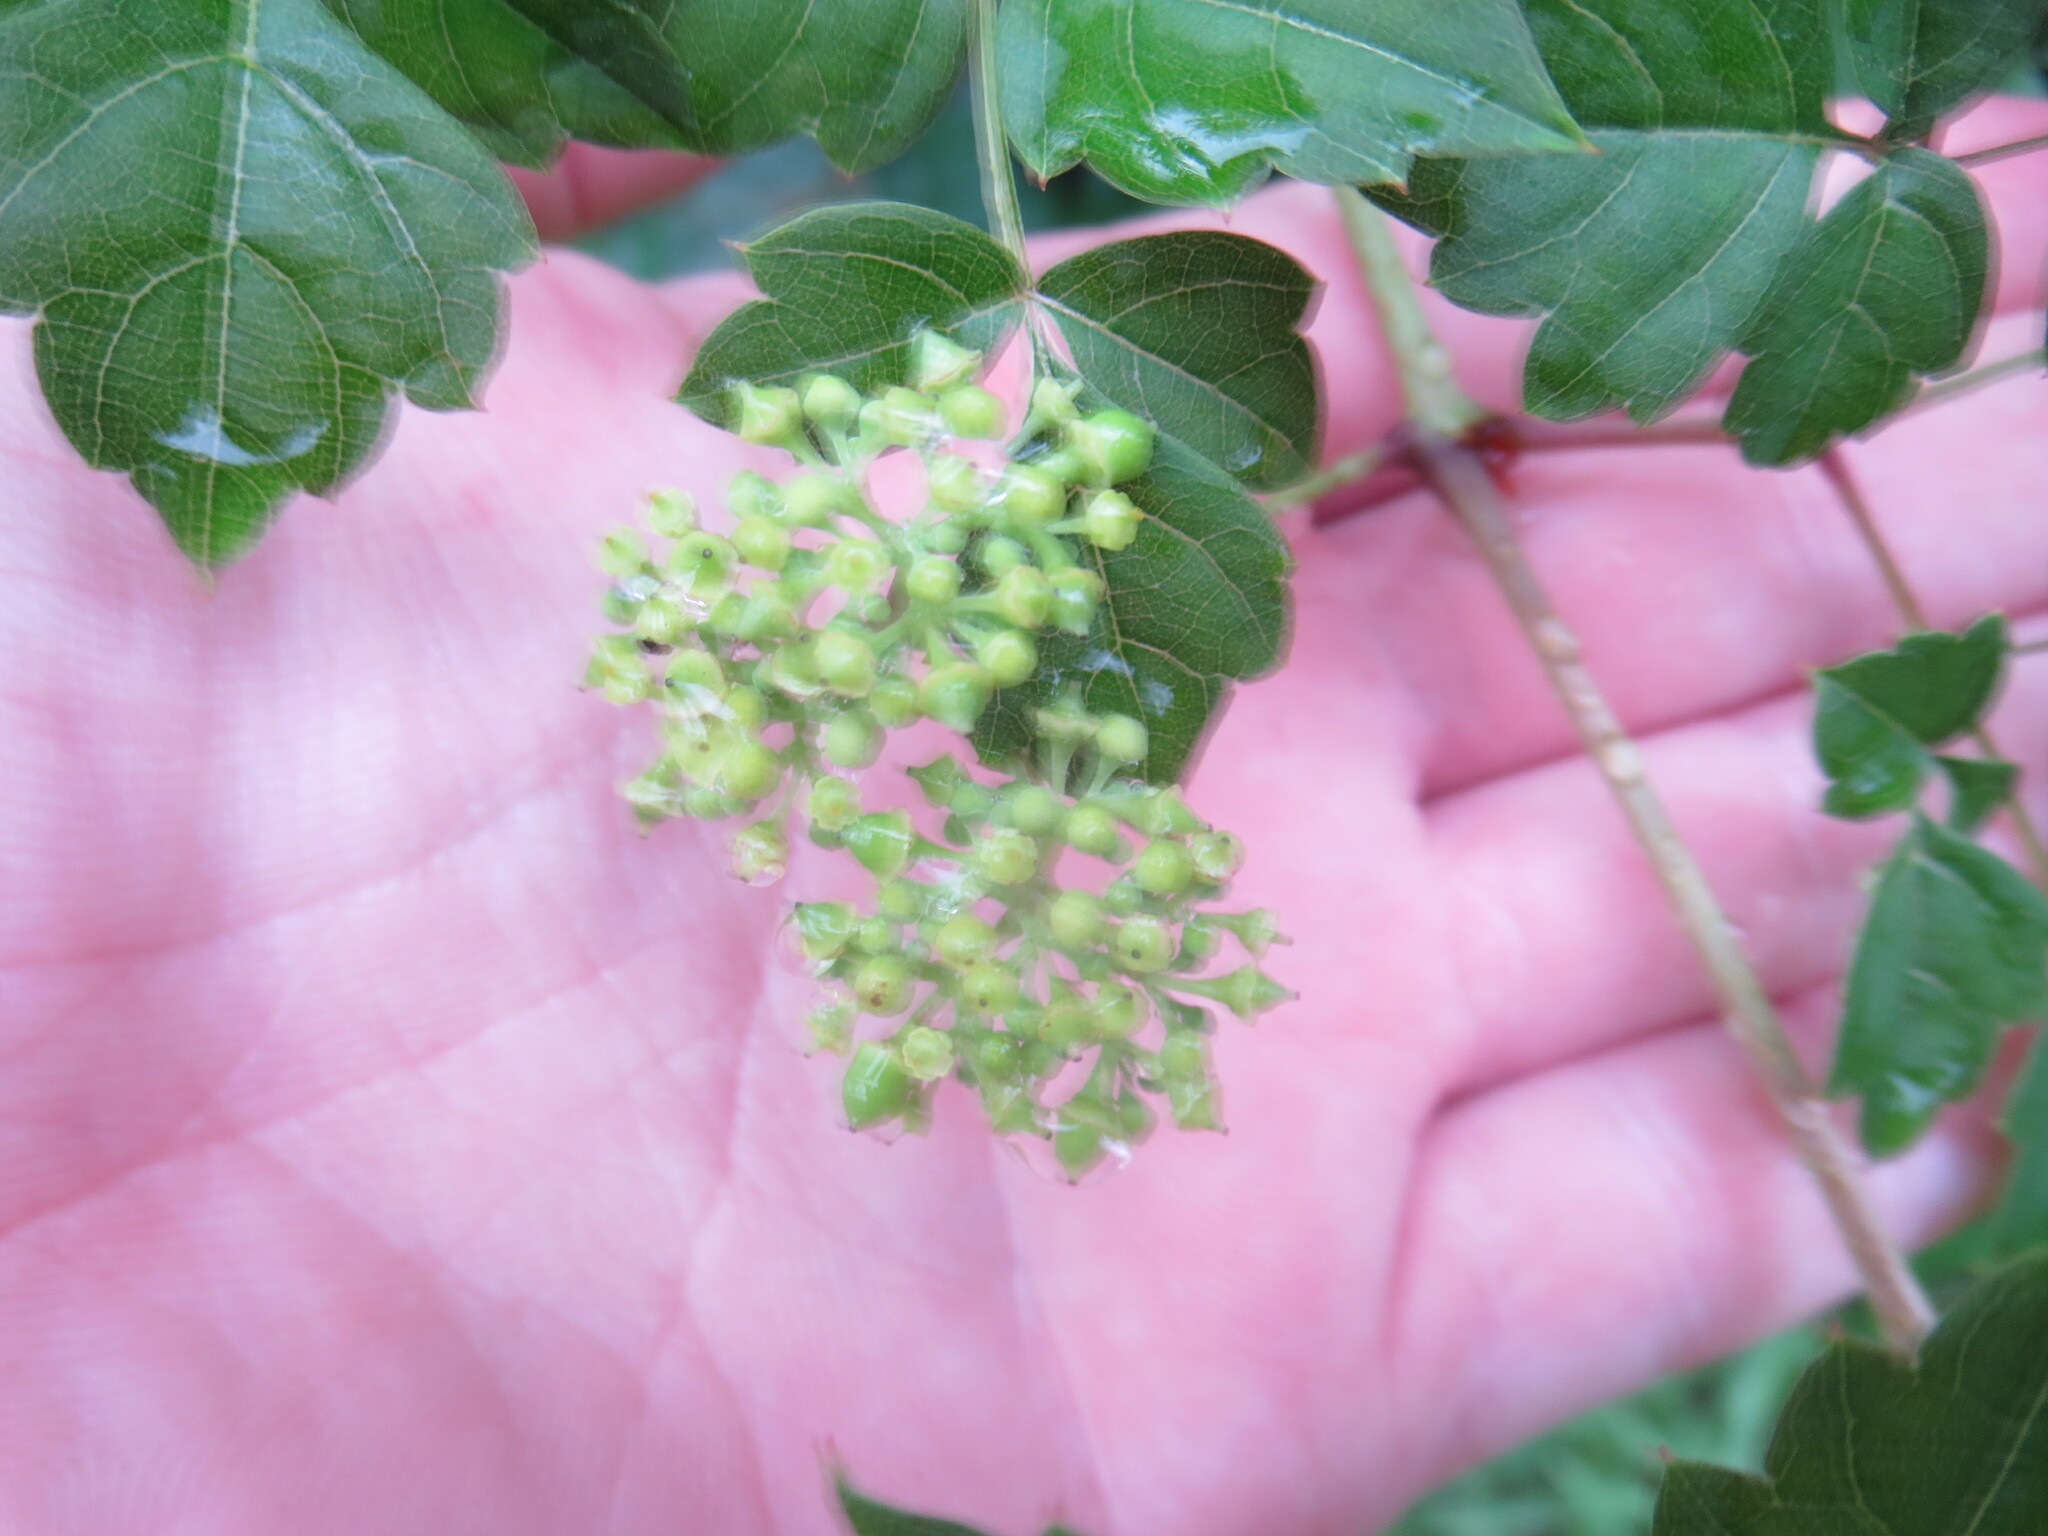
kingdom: Plantae
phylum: Tracheophyta
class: Magnoliopsida
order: Vitales
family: Vitaceae
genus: Nekemias
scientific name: Nekemias arborea
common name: Peppervine
